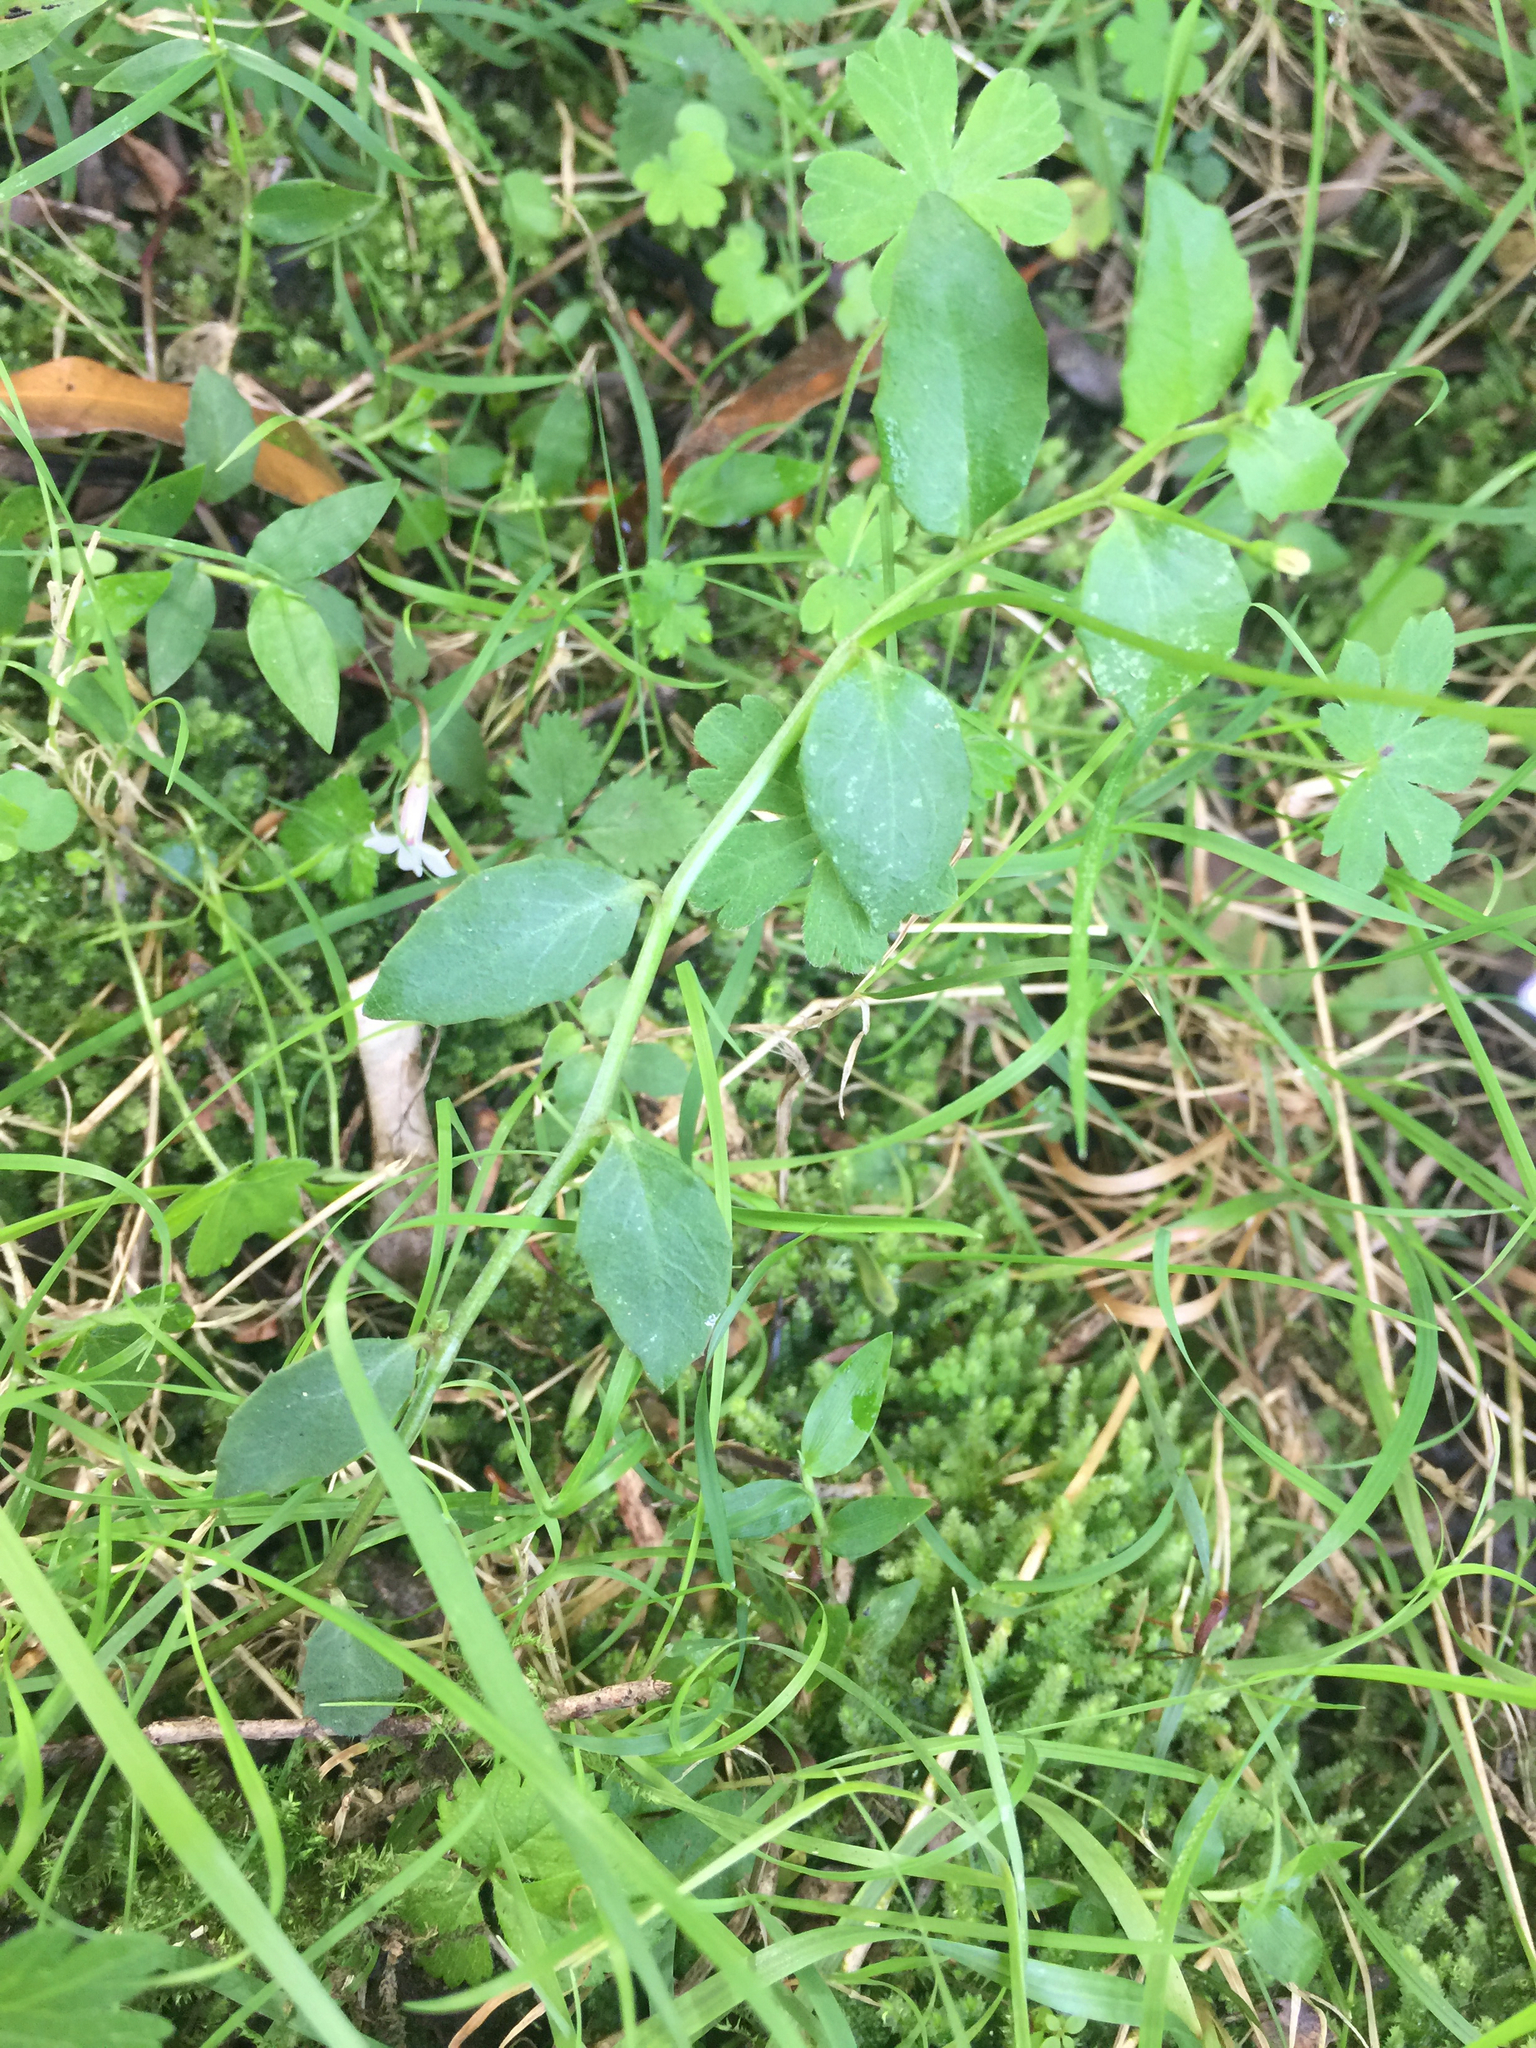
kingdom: Plantae
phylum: Tracheophyta
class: Magnoliopsida
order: Asterales
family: Campanulaceae
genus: Lobelia
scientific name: Lobelia purpurascens
